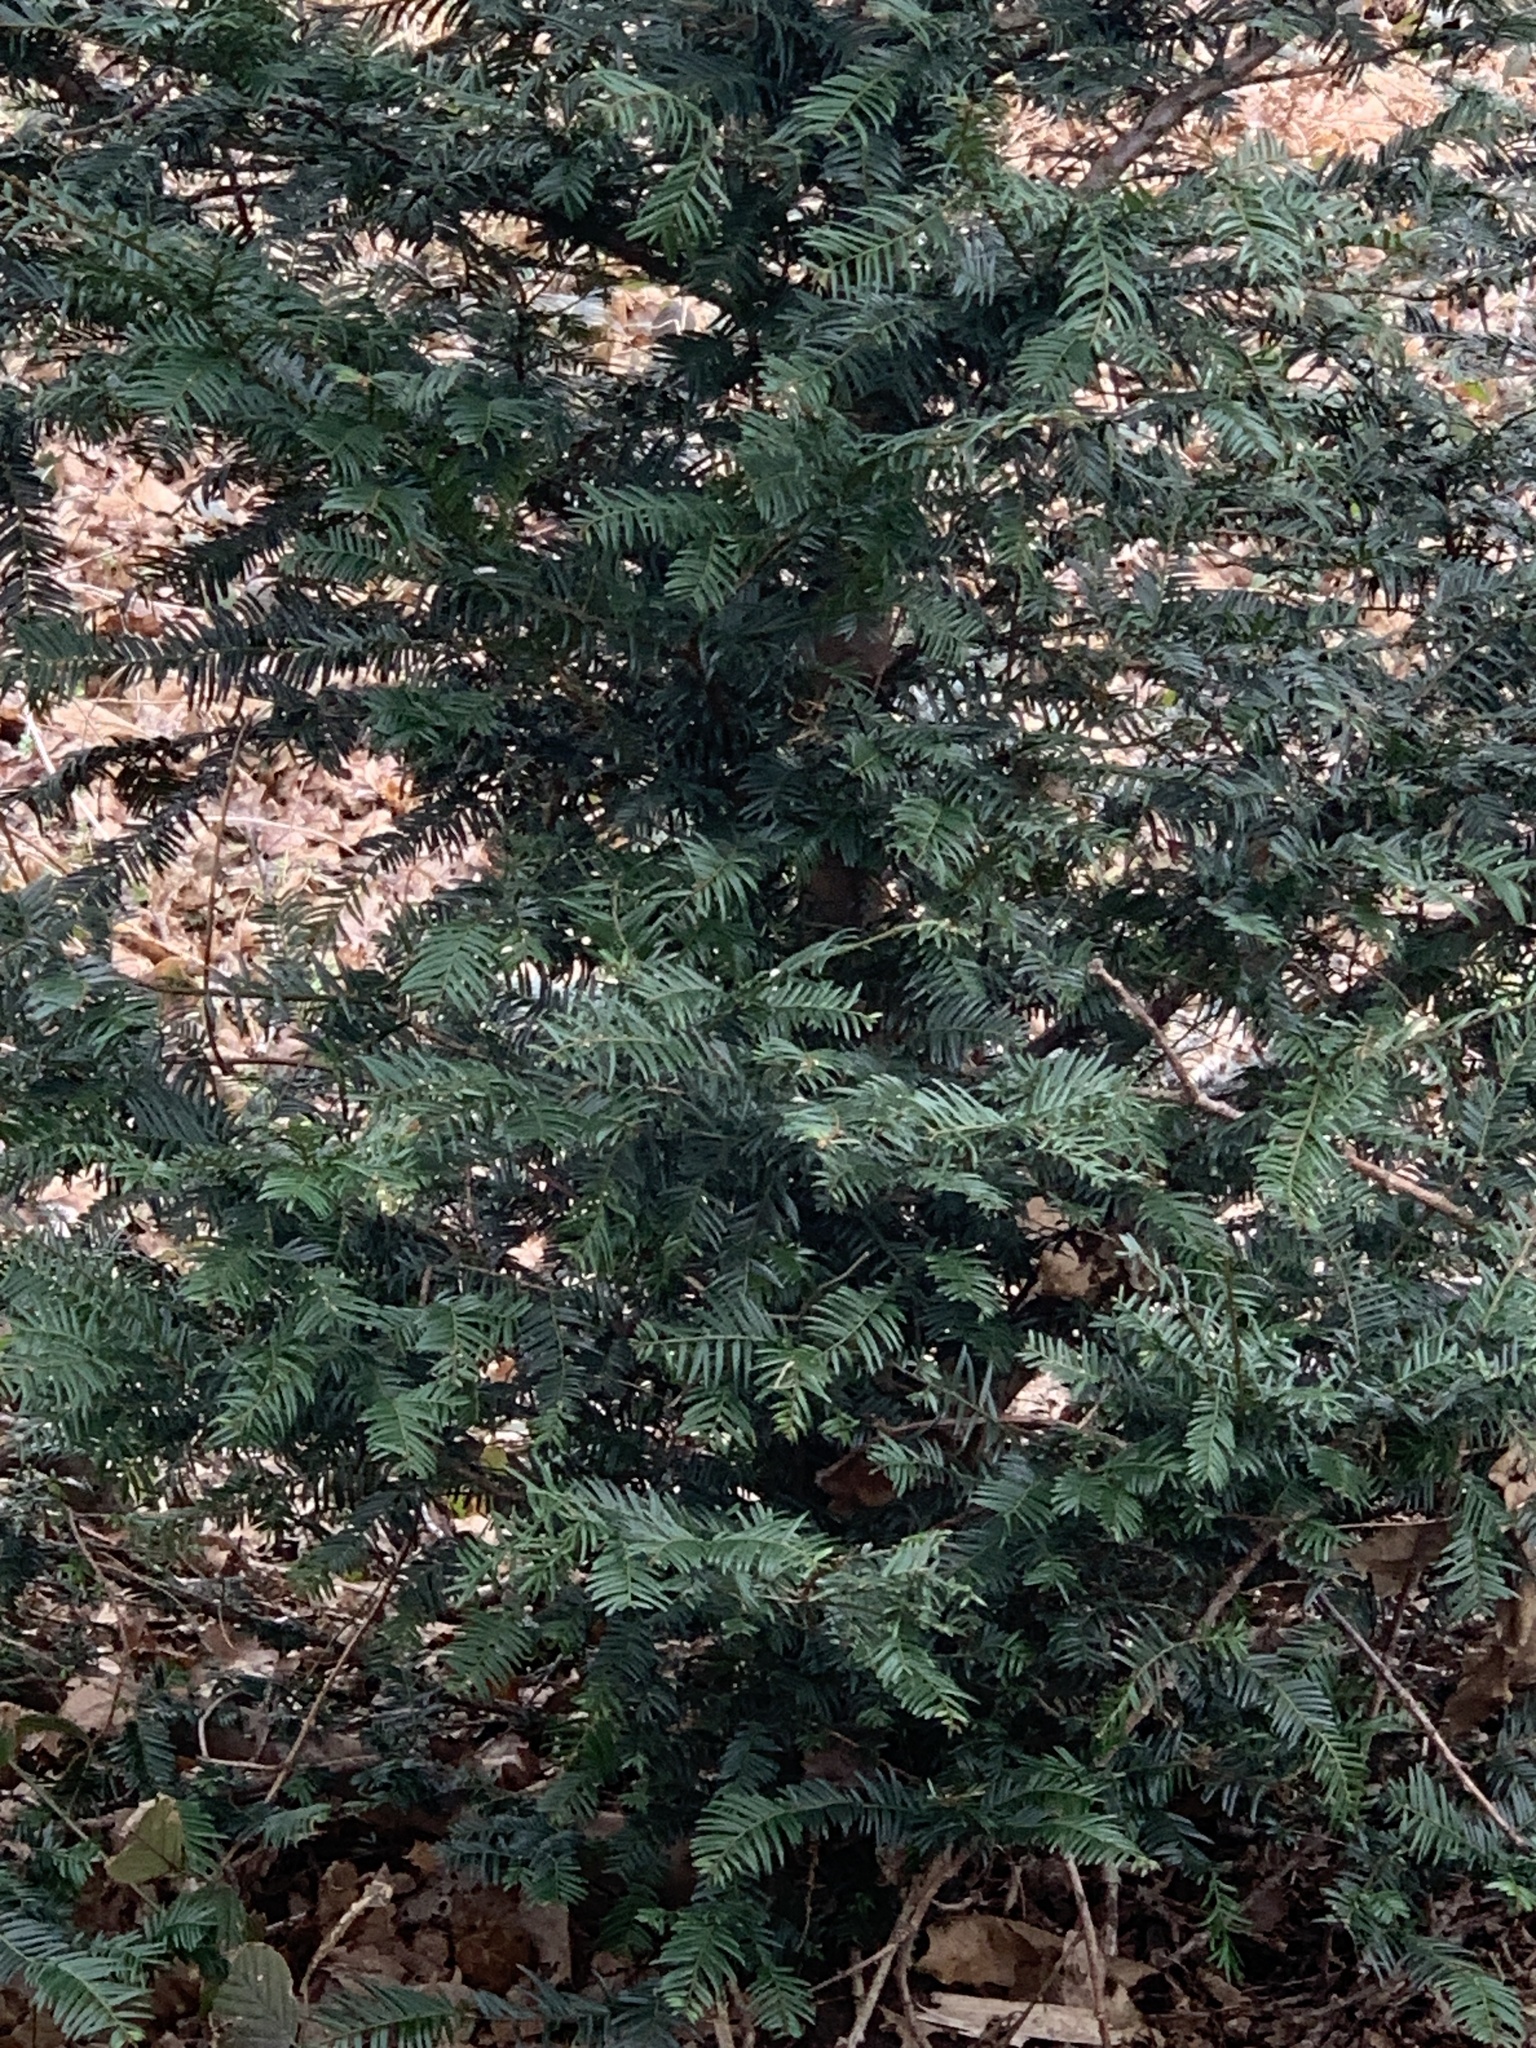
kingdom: Plantae
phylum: Tracheophyta
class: Pinopsida
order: Pinales
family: Taxaceae
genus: Taxus
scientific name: Taxus baccata
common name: Yew
